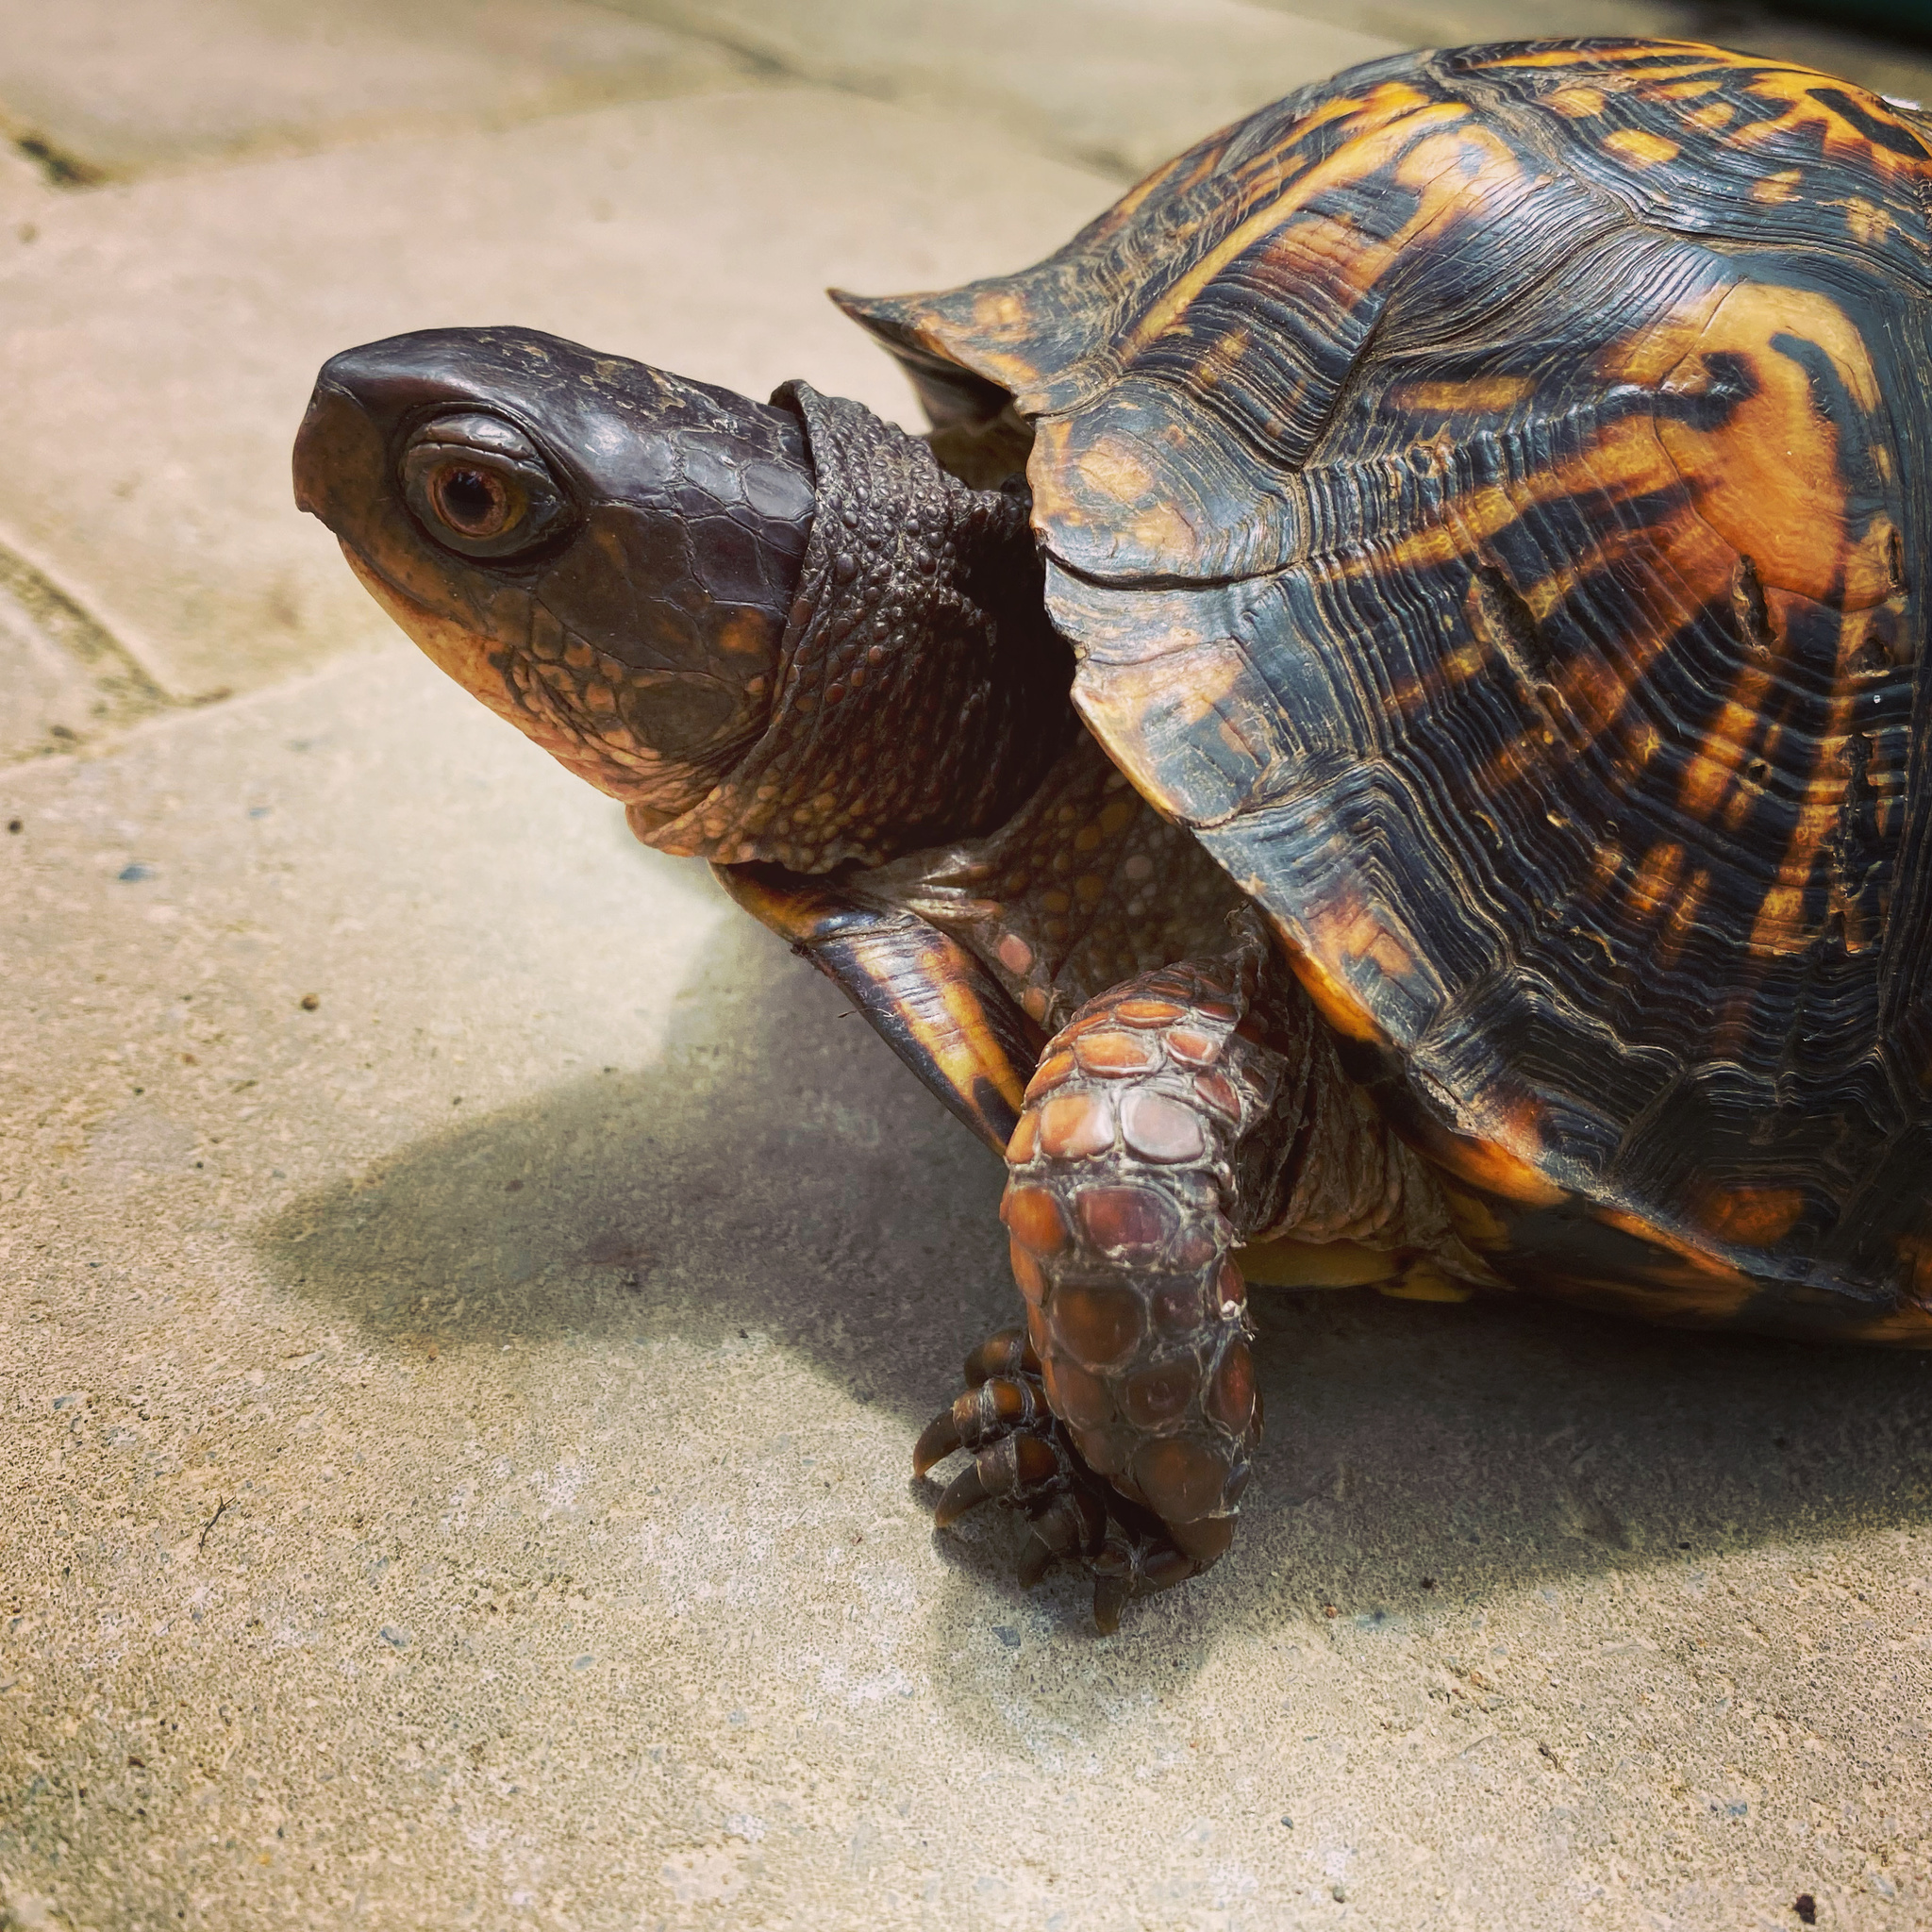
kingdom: Animalia
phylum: Chordata
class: Testudines
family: Emydidae
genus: Terrapene
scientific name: Terrapene carolina
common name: Common box turtle
